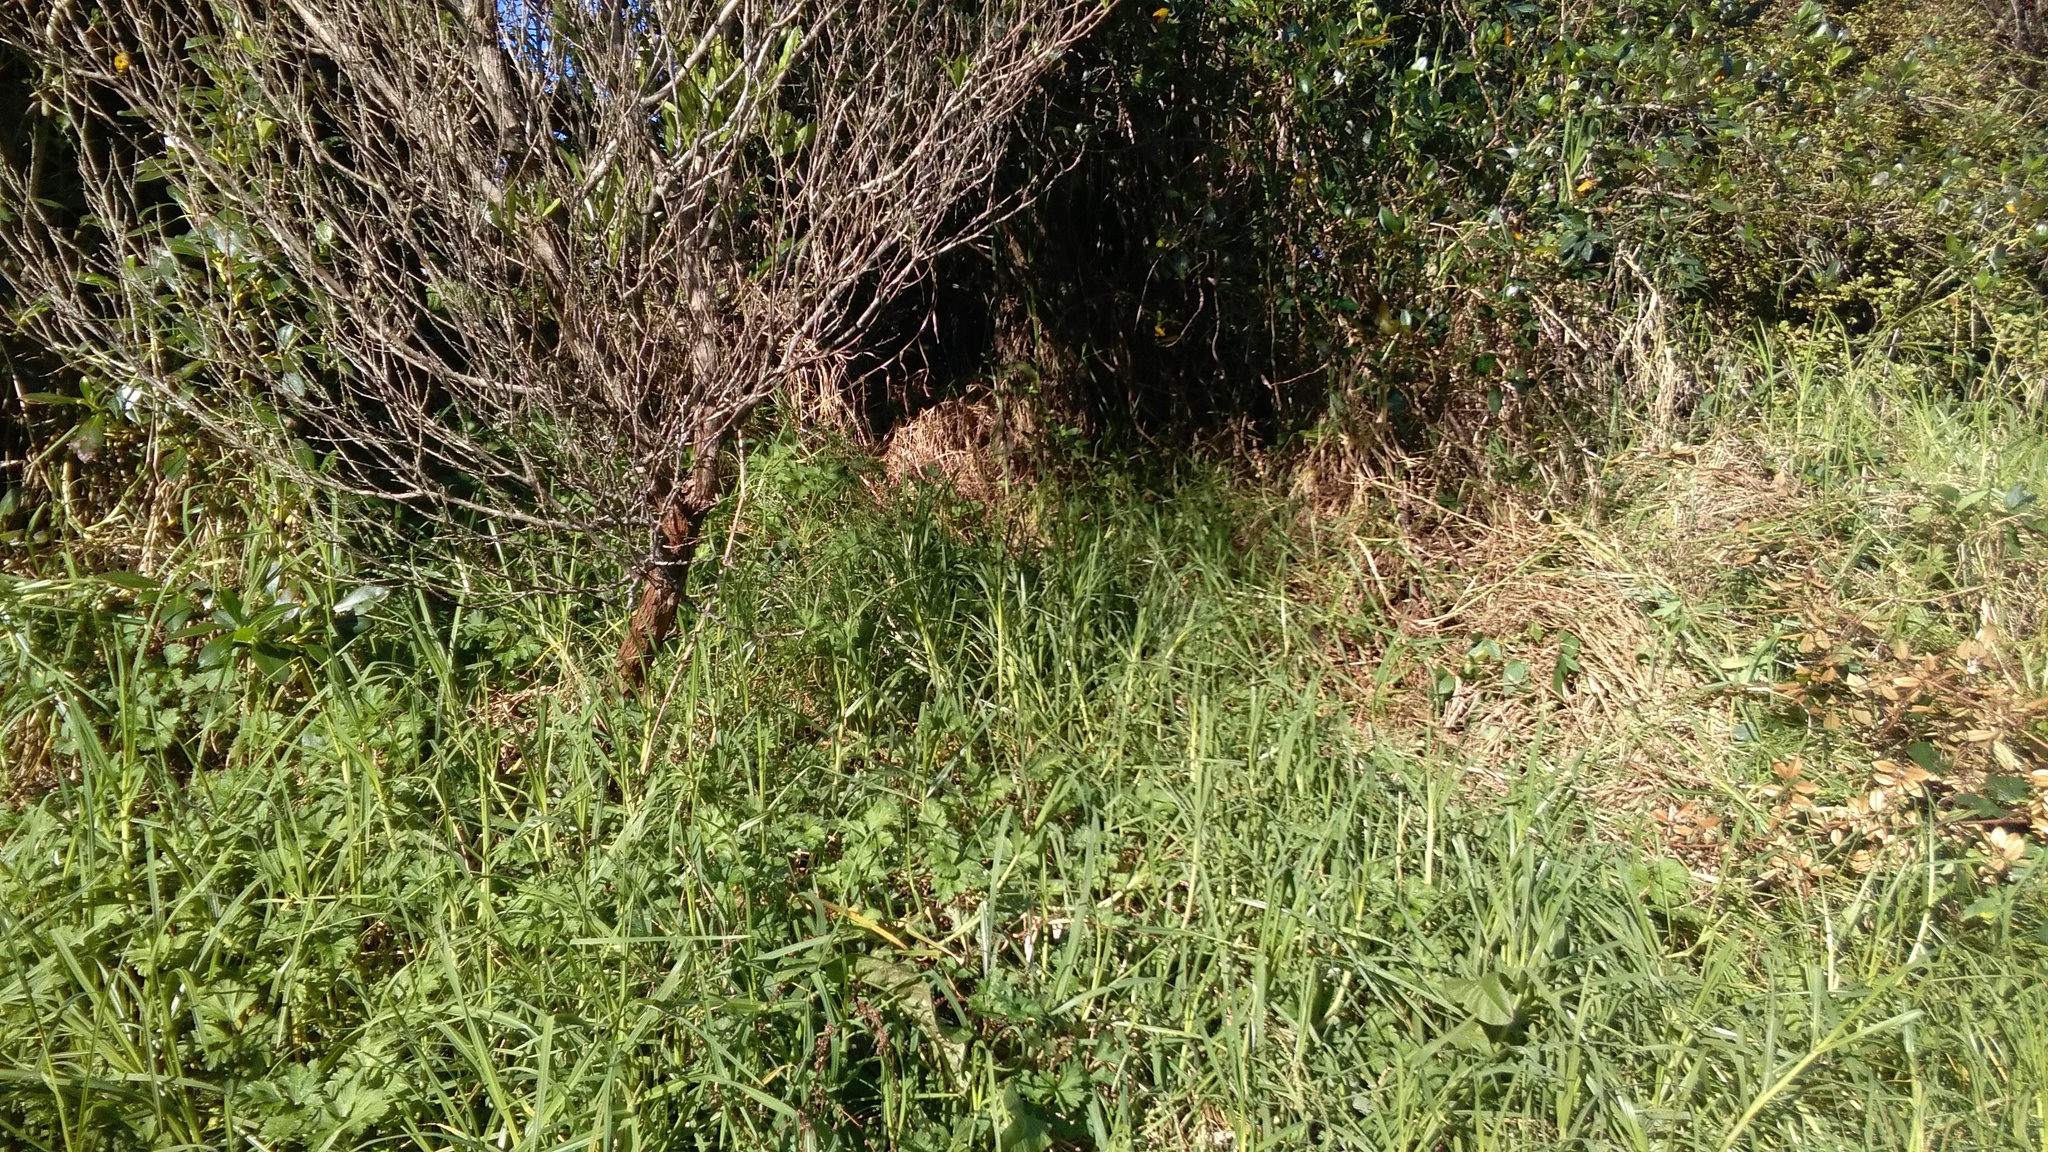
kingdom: Plantae
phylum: Tracheophyta
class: Liliopsida
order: Poales
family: Poaceae
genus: Cenchrus
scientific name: Cenchrus clandestinus
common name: Kikuyugrass
